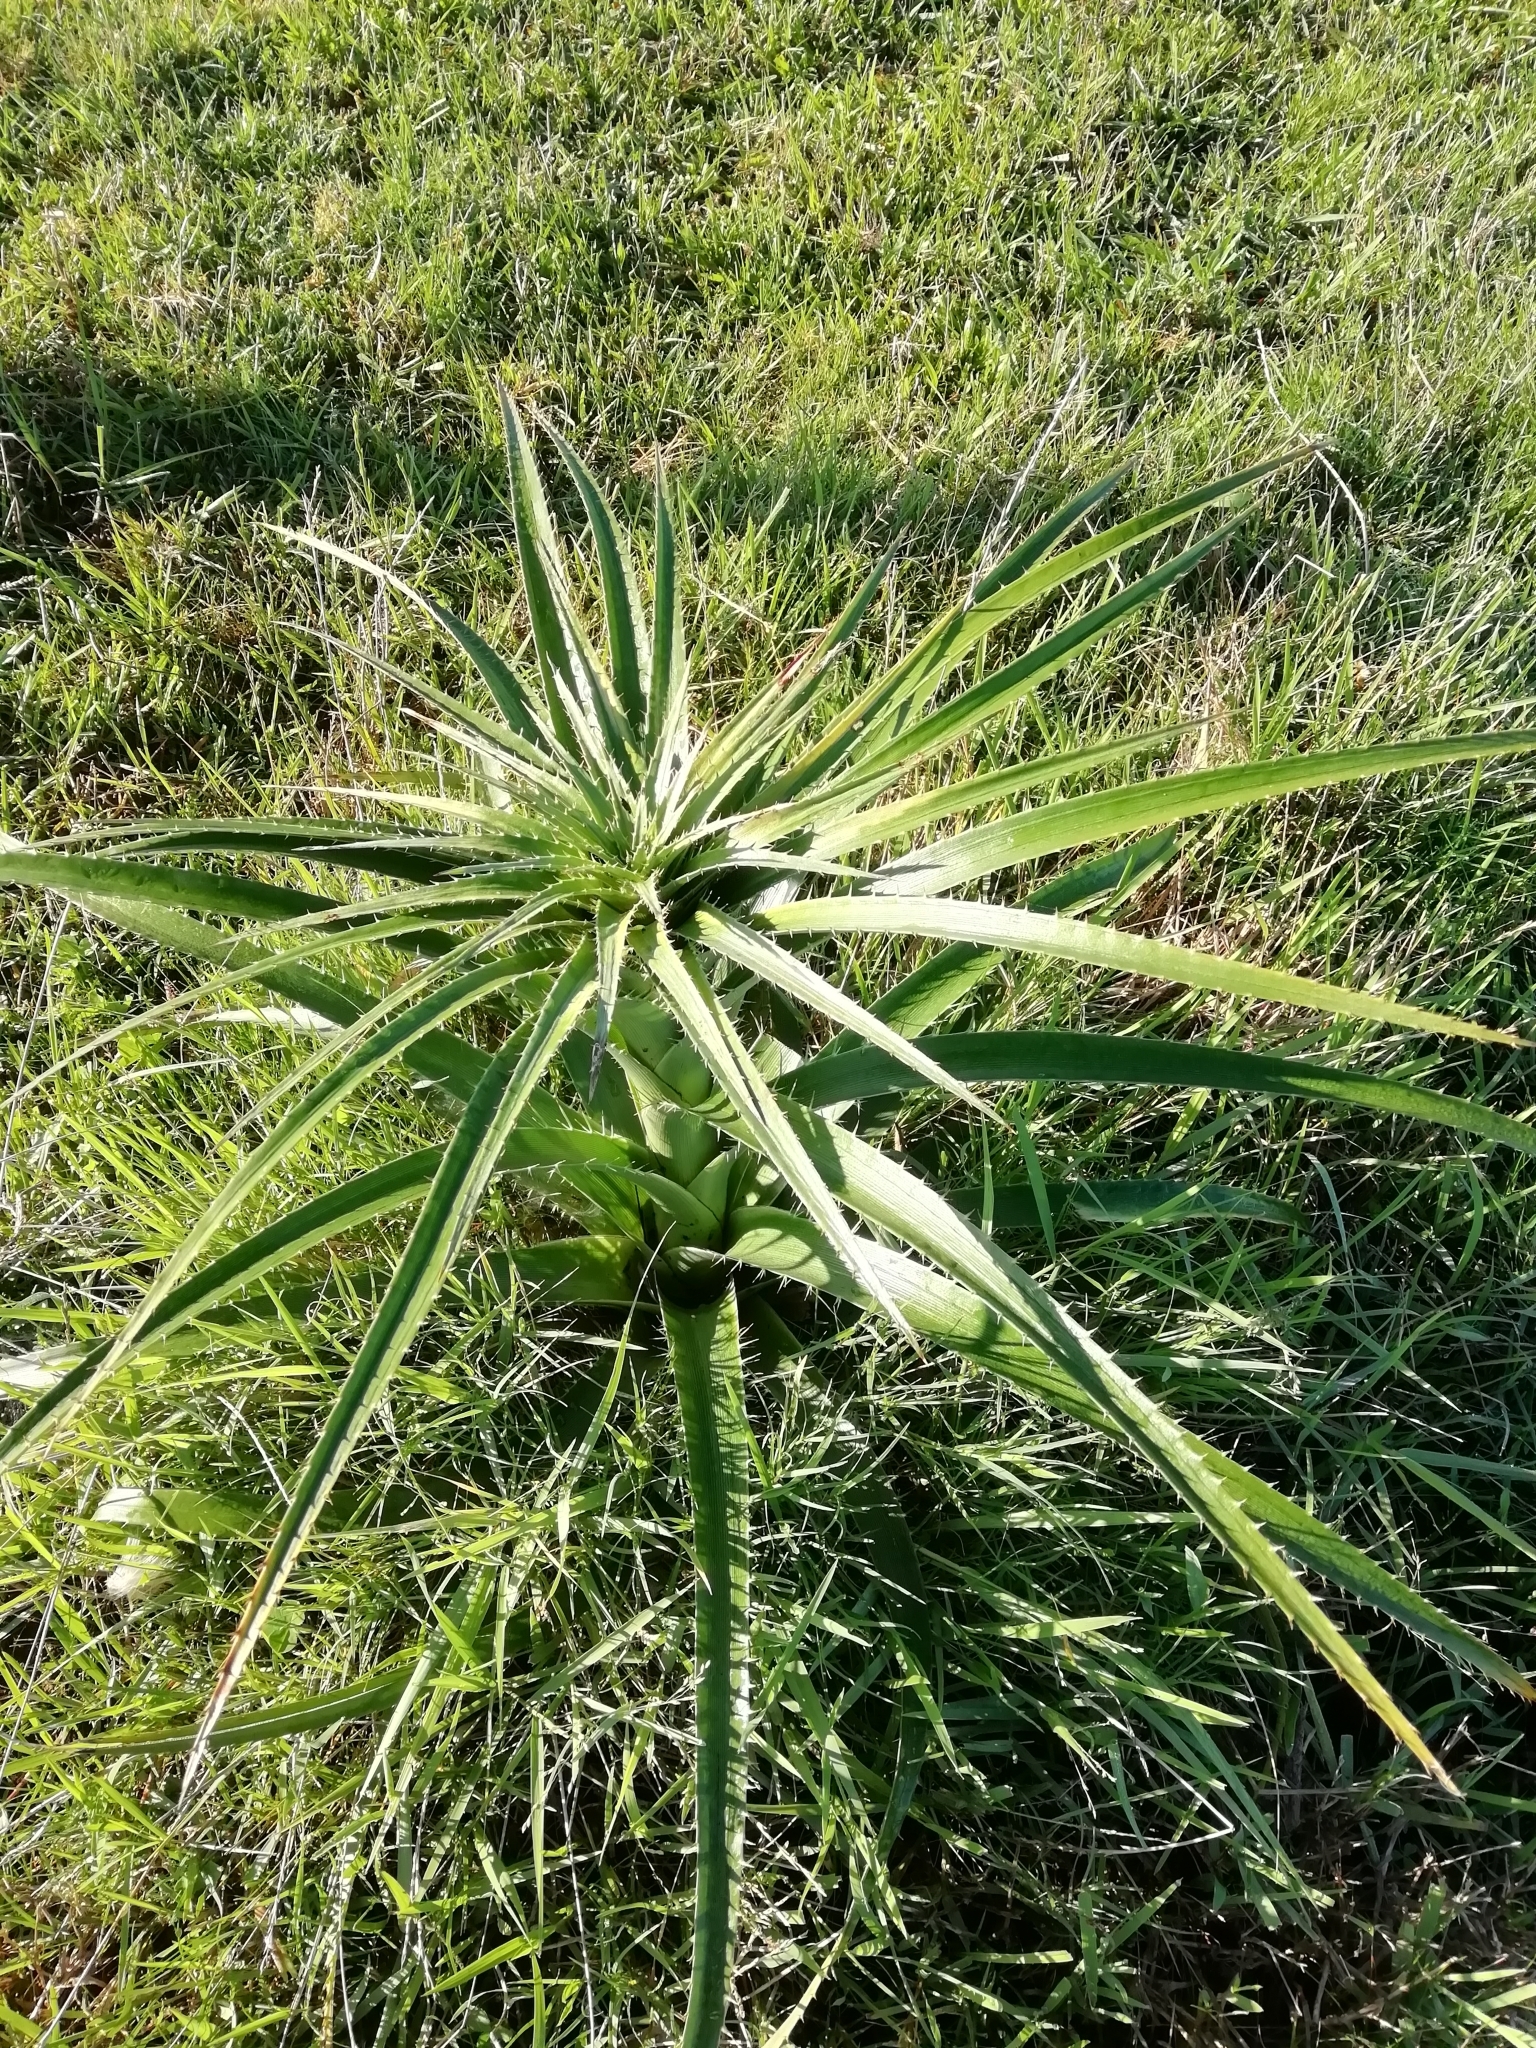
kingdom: Plantae
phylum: Tracheophyta
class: Magnoliopsida
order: Apiales
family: Apiaceae
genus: Eryngium
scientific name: Eryngium eburneum
